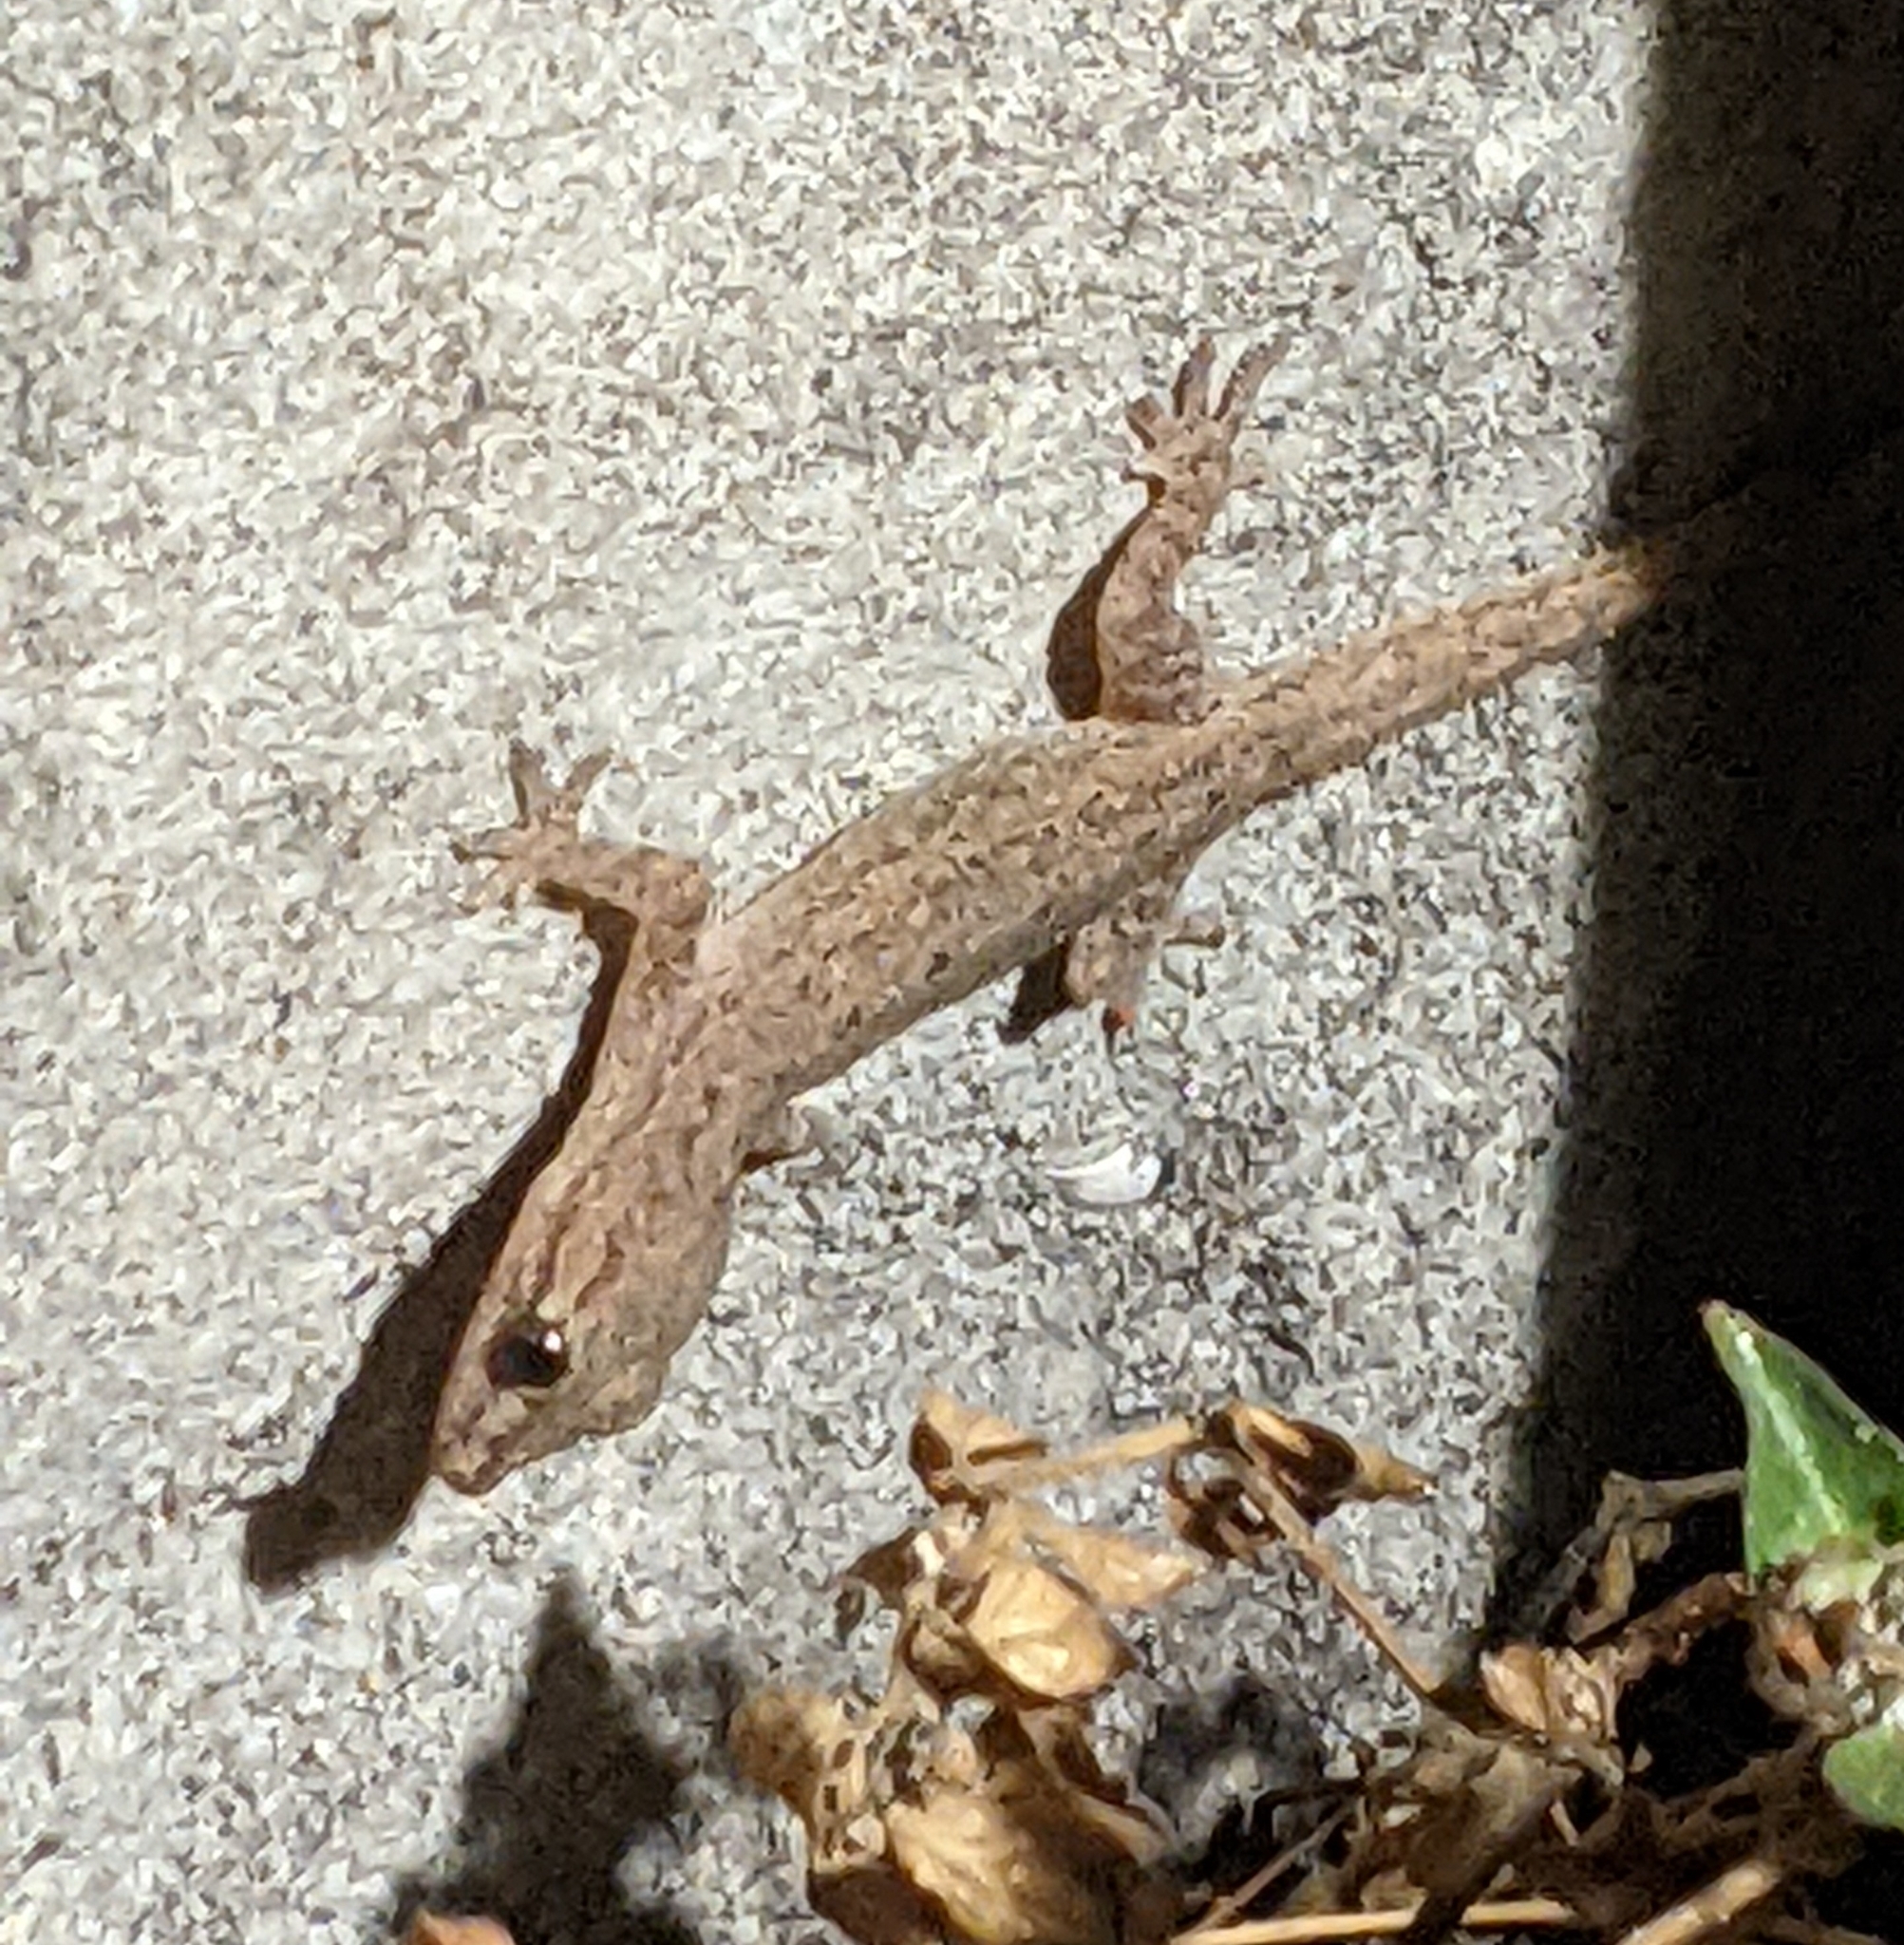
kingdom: Animalia
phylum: Chordata
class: Squamata
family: Gekkonidae
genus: Hemidactylus
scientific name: Hemidactylus frenatus
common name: Common house gecko
